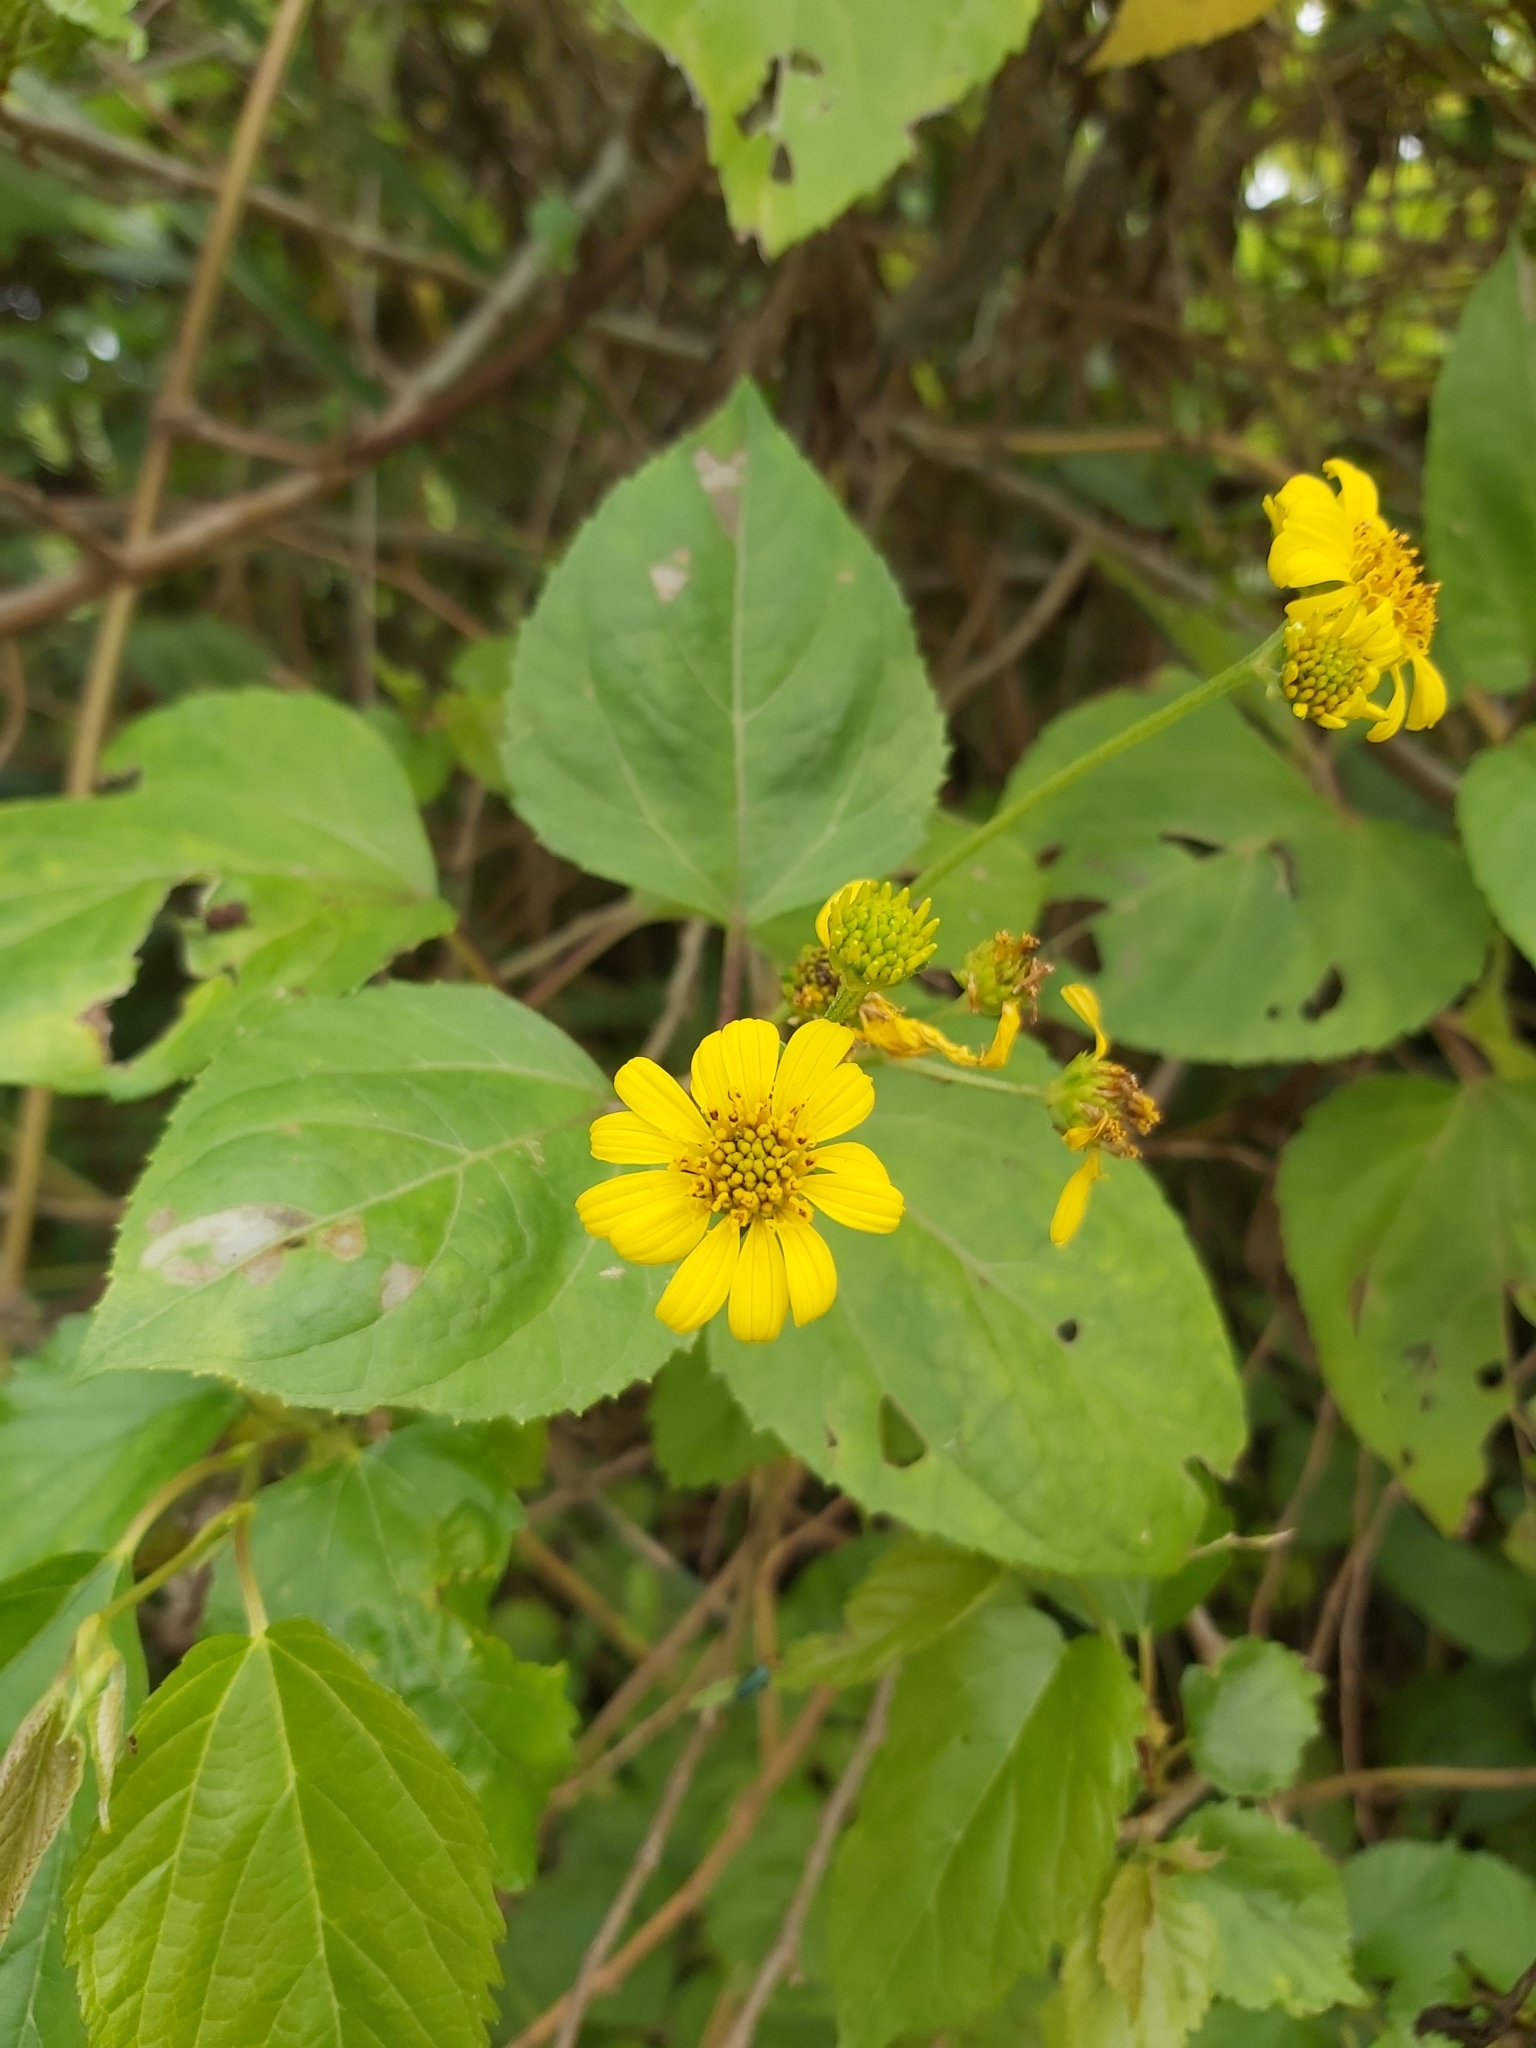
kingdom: Plantae
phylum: Tracheophyta
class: Magnoliopsida
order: Asterales
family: Asteraceae
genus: Wollastonia
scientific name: Wollastonia biflora
